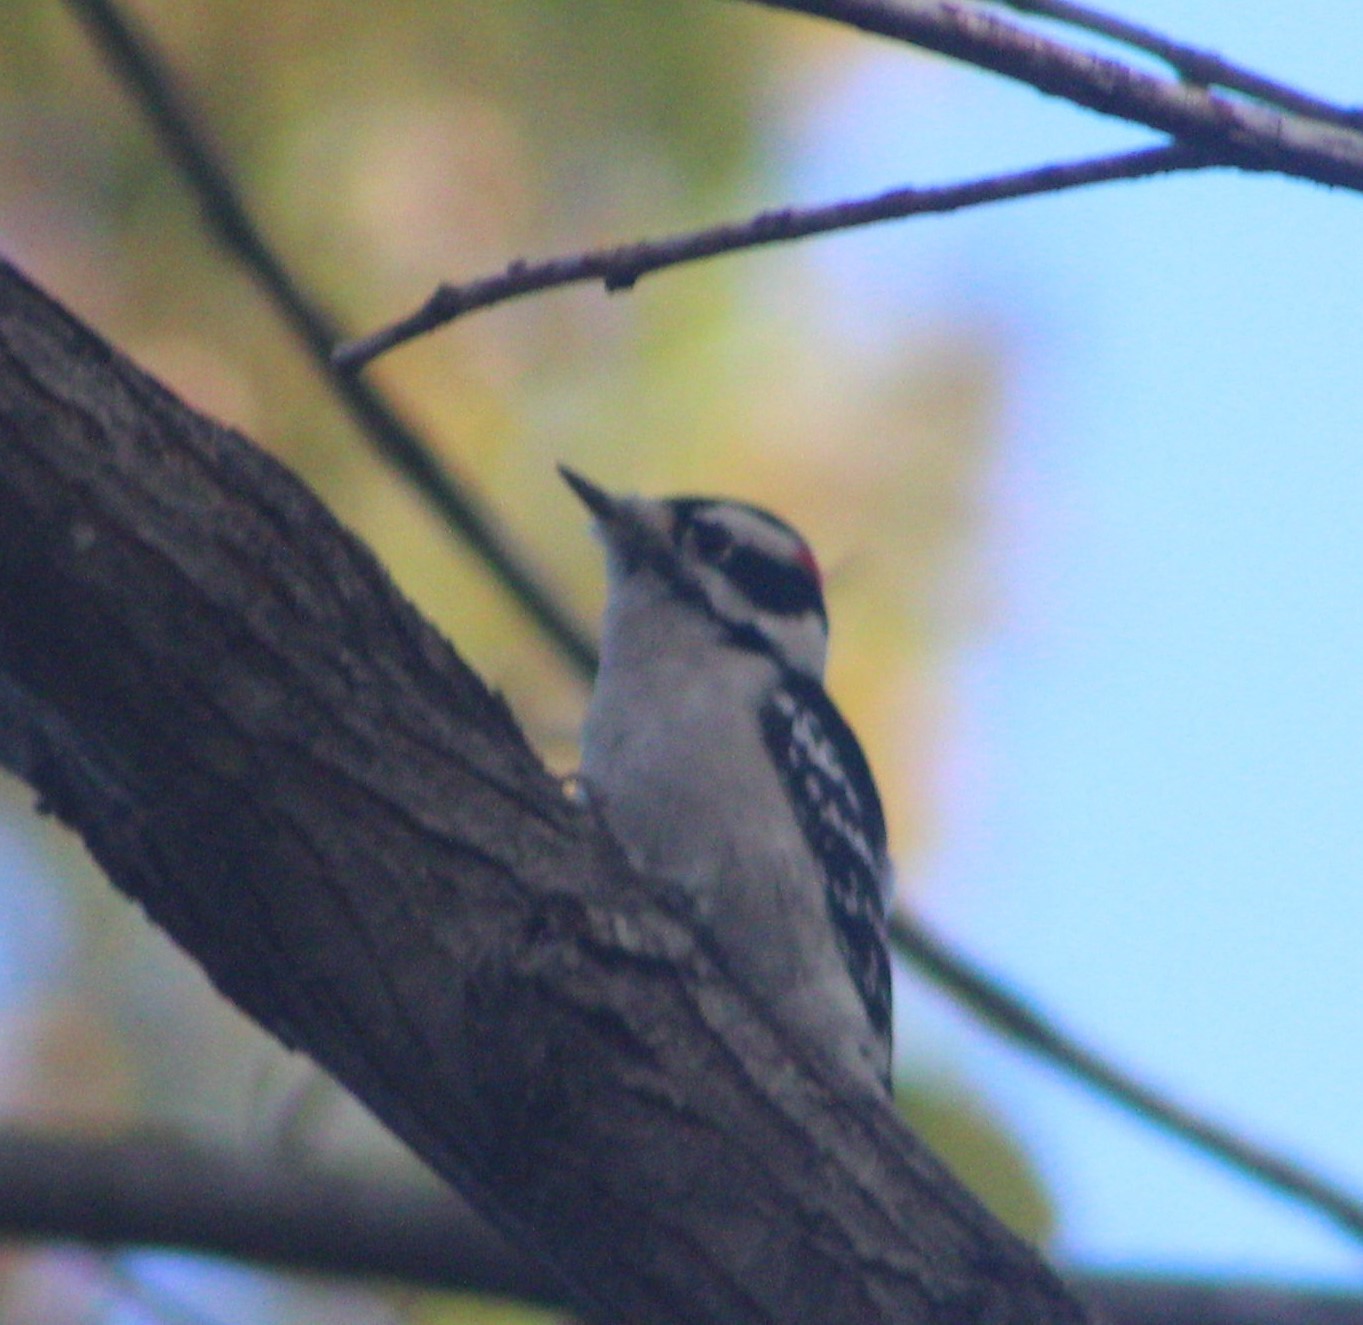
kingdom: Animalia
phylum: Chordata
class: Aves
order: Piciformes
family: Picidae
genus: Dryobates
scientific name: Dryobates pubescens
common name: Downy woodpecker
